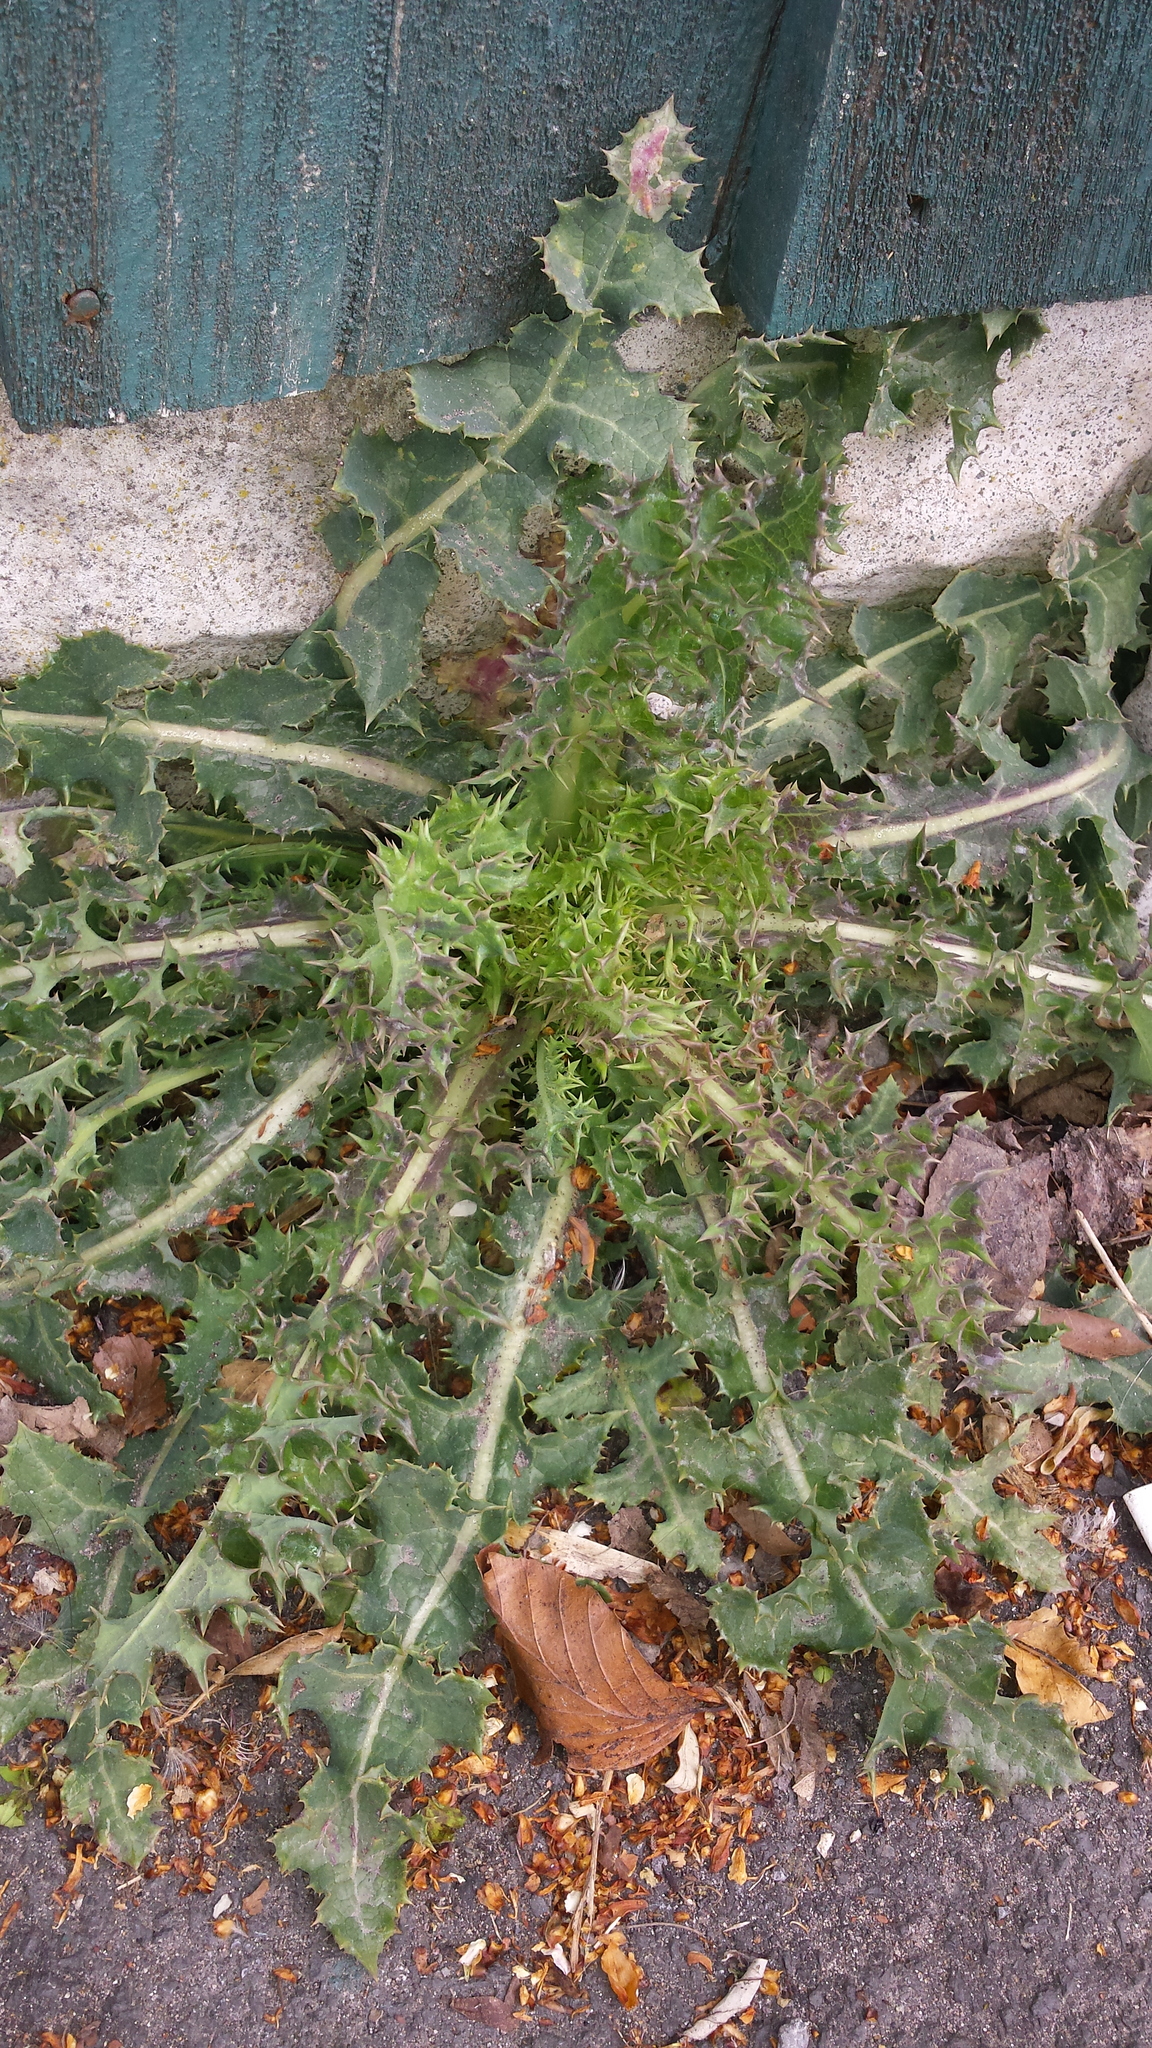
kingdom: Plantae
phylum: Tracheophyta
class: Magnoliopsida
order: Asterales
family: Asteraceae
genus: Sonchus
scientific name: Sonchus asper
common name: Prickly sow-thistle
